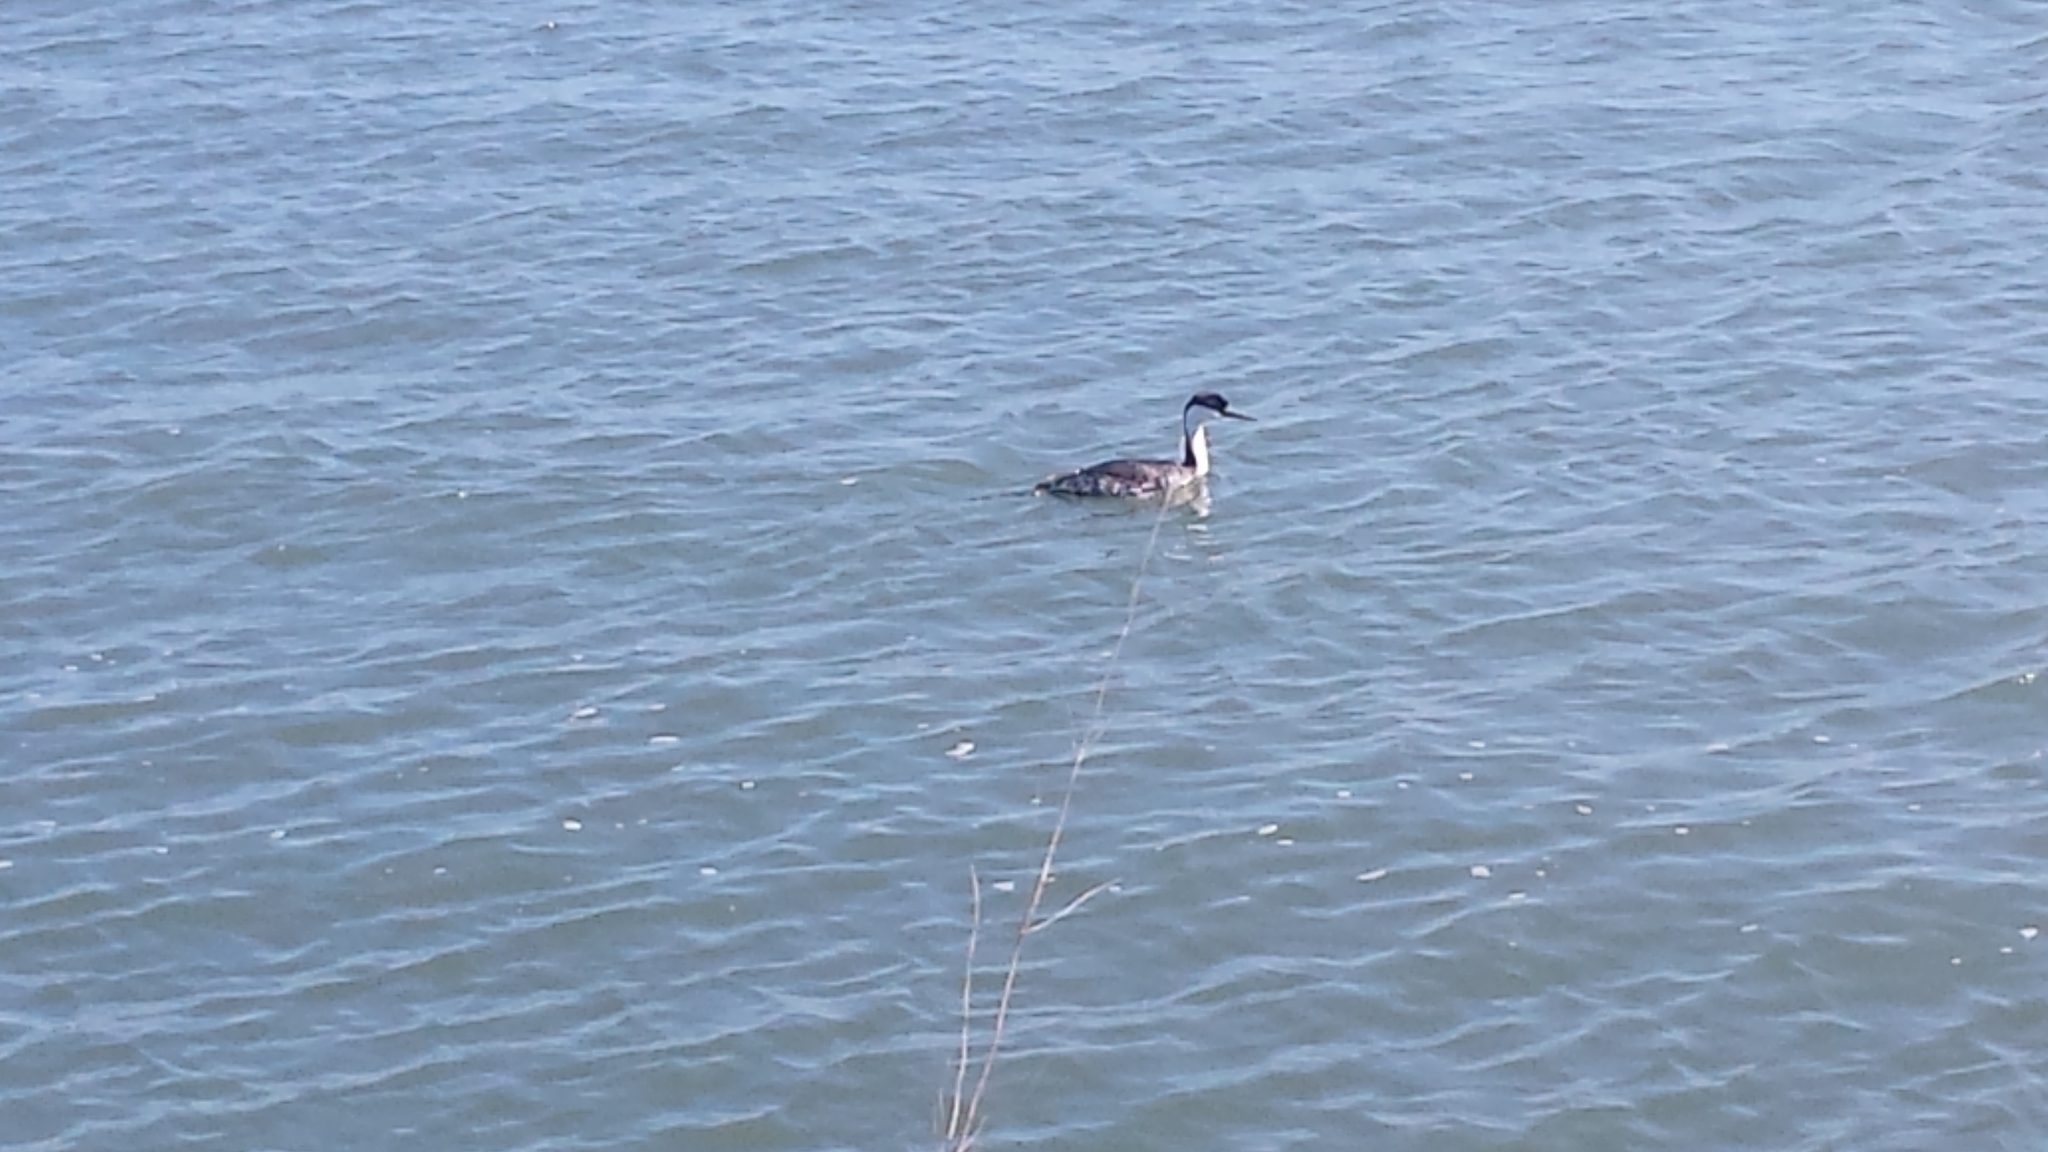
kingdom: Animalia
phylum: Chordata
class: Aves
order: Podicipediformes
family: Podicipedidae
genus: Aechmophorus
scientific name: Aechmophorus occidentalis
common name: Western grebe
